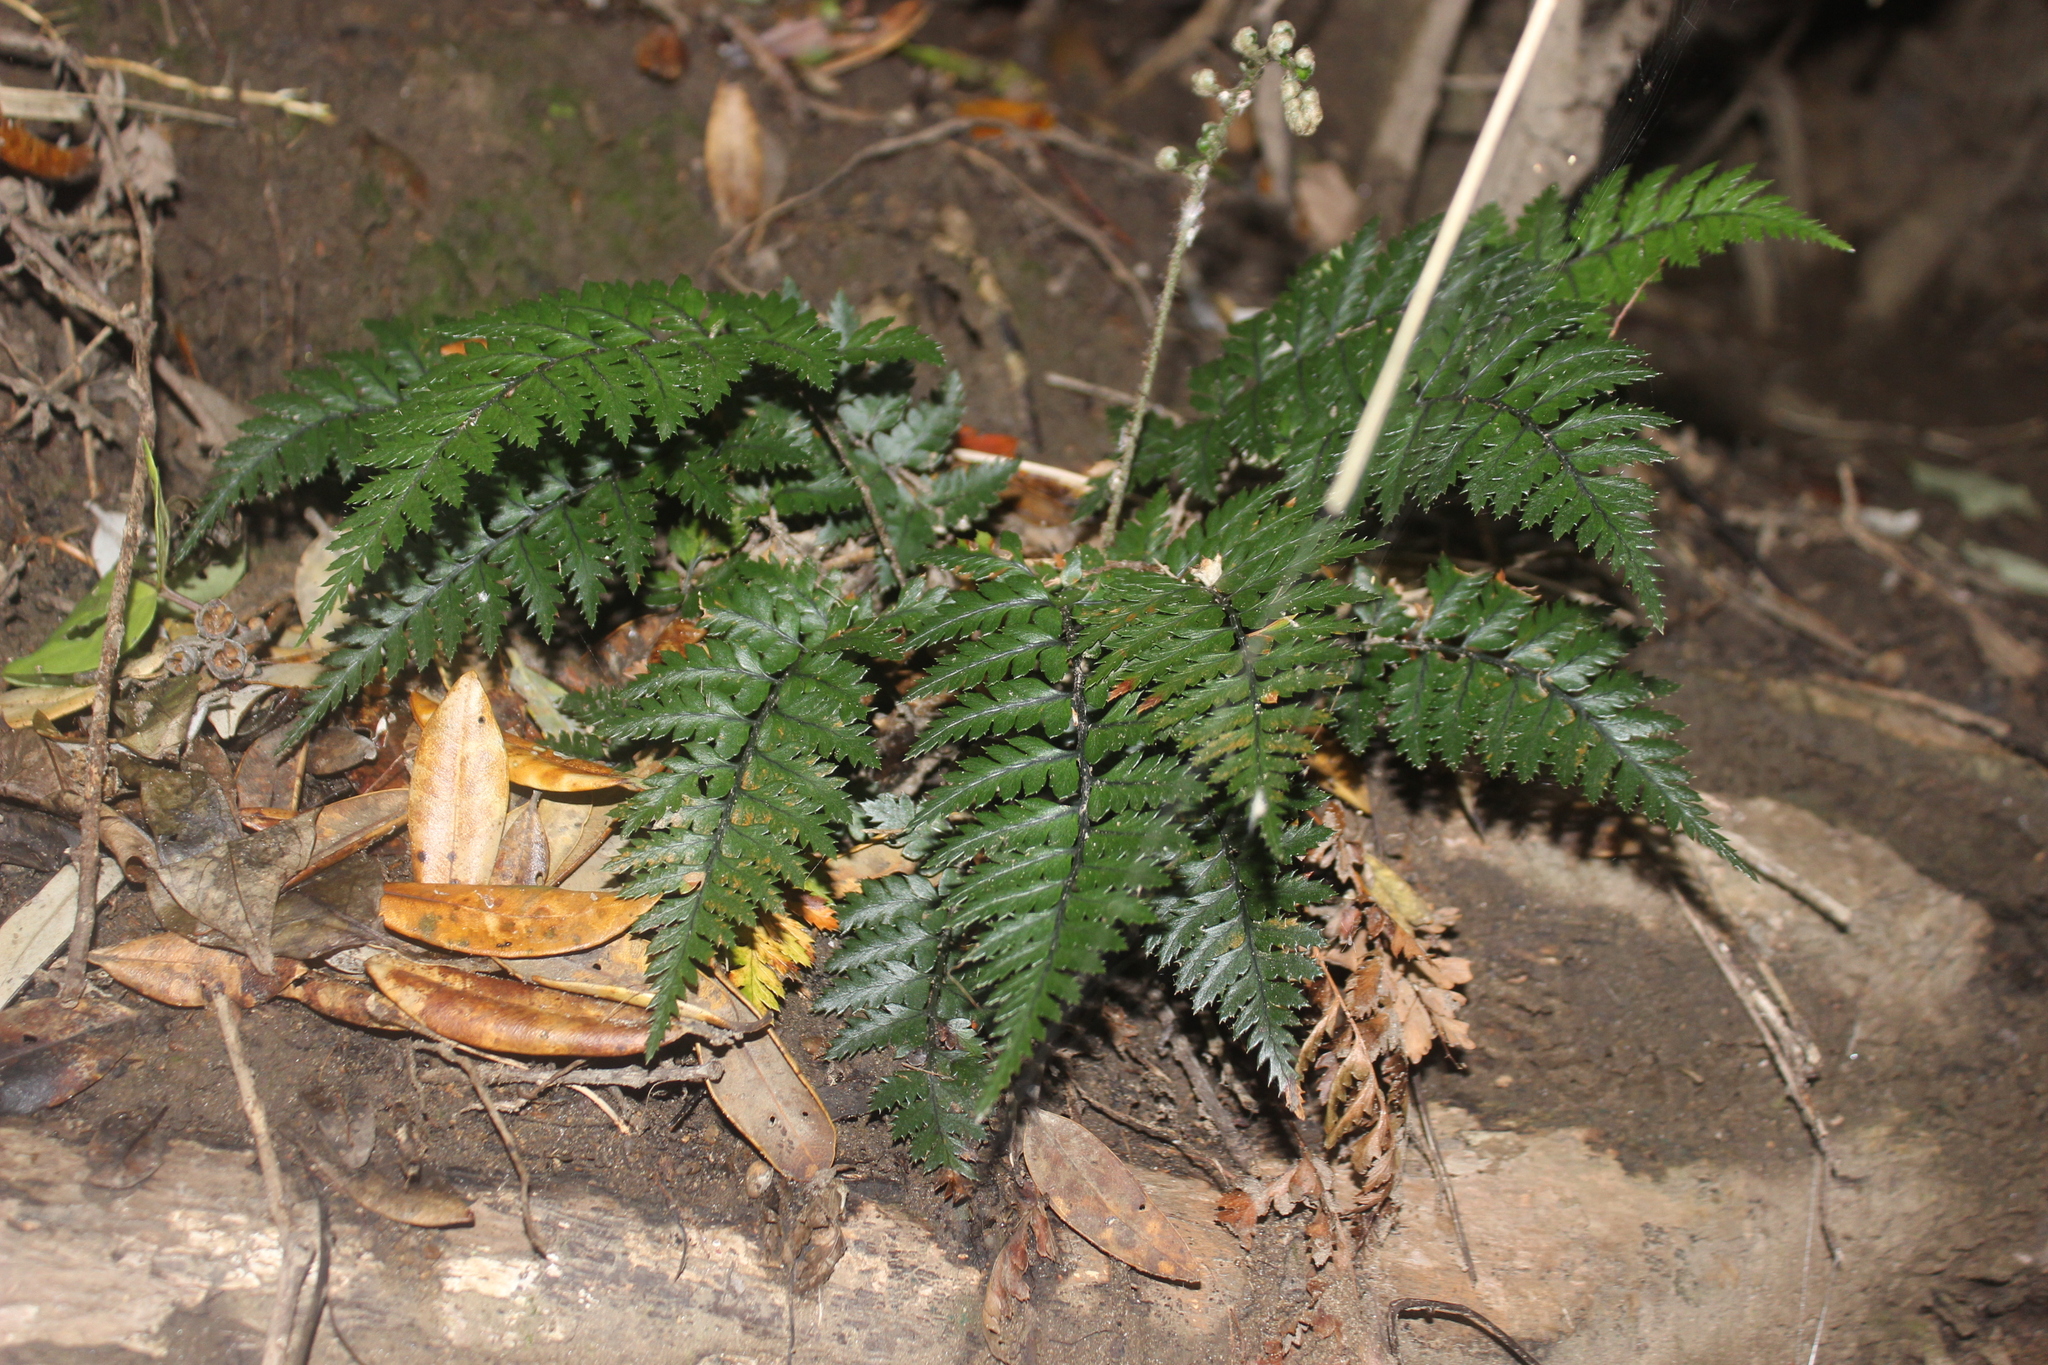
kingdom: Plantae
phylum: Tracheophyta
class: Polypodiopsida
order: Polypodiales
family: Dryopteridaceae
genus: Polystichum
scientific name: Polystichum neozelandicum
